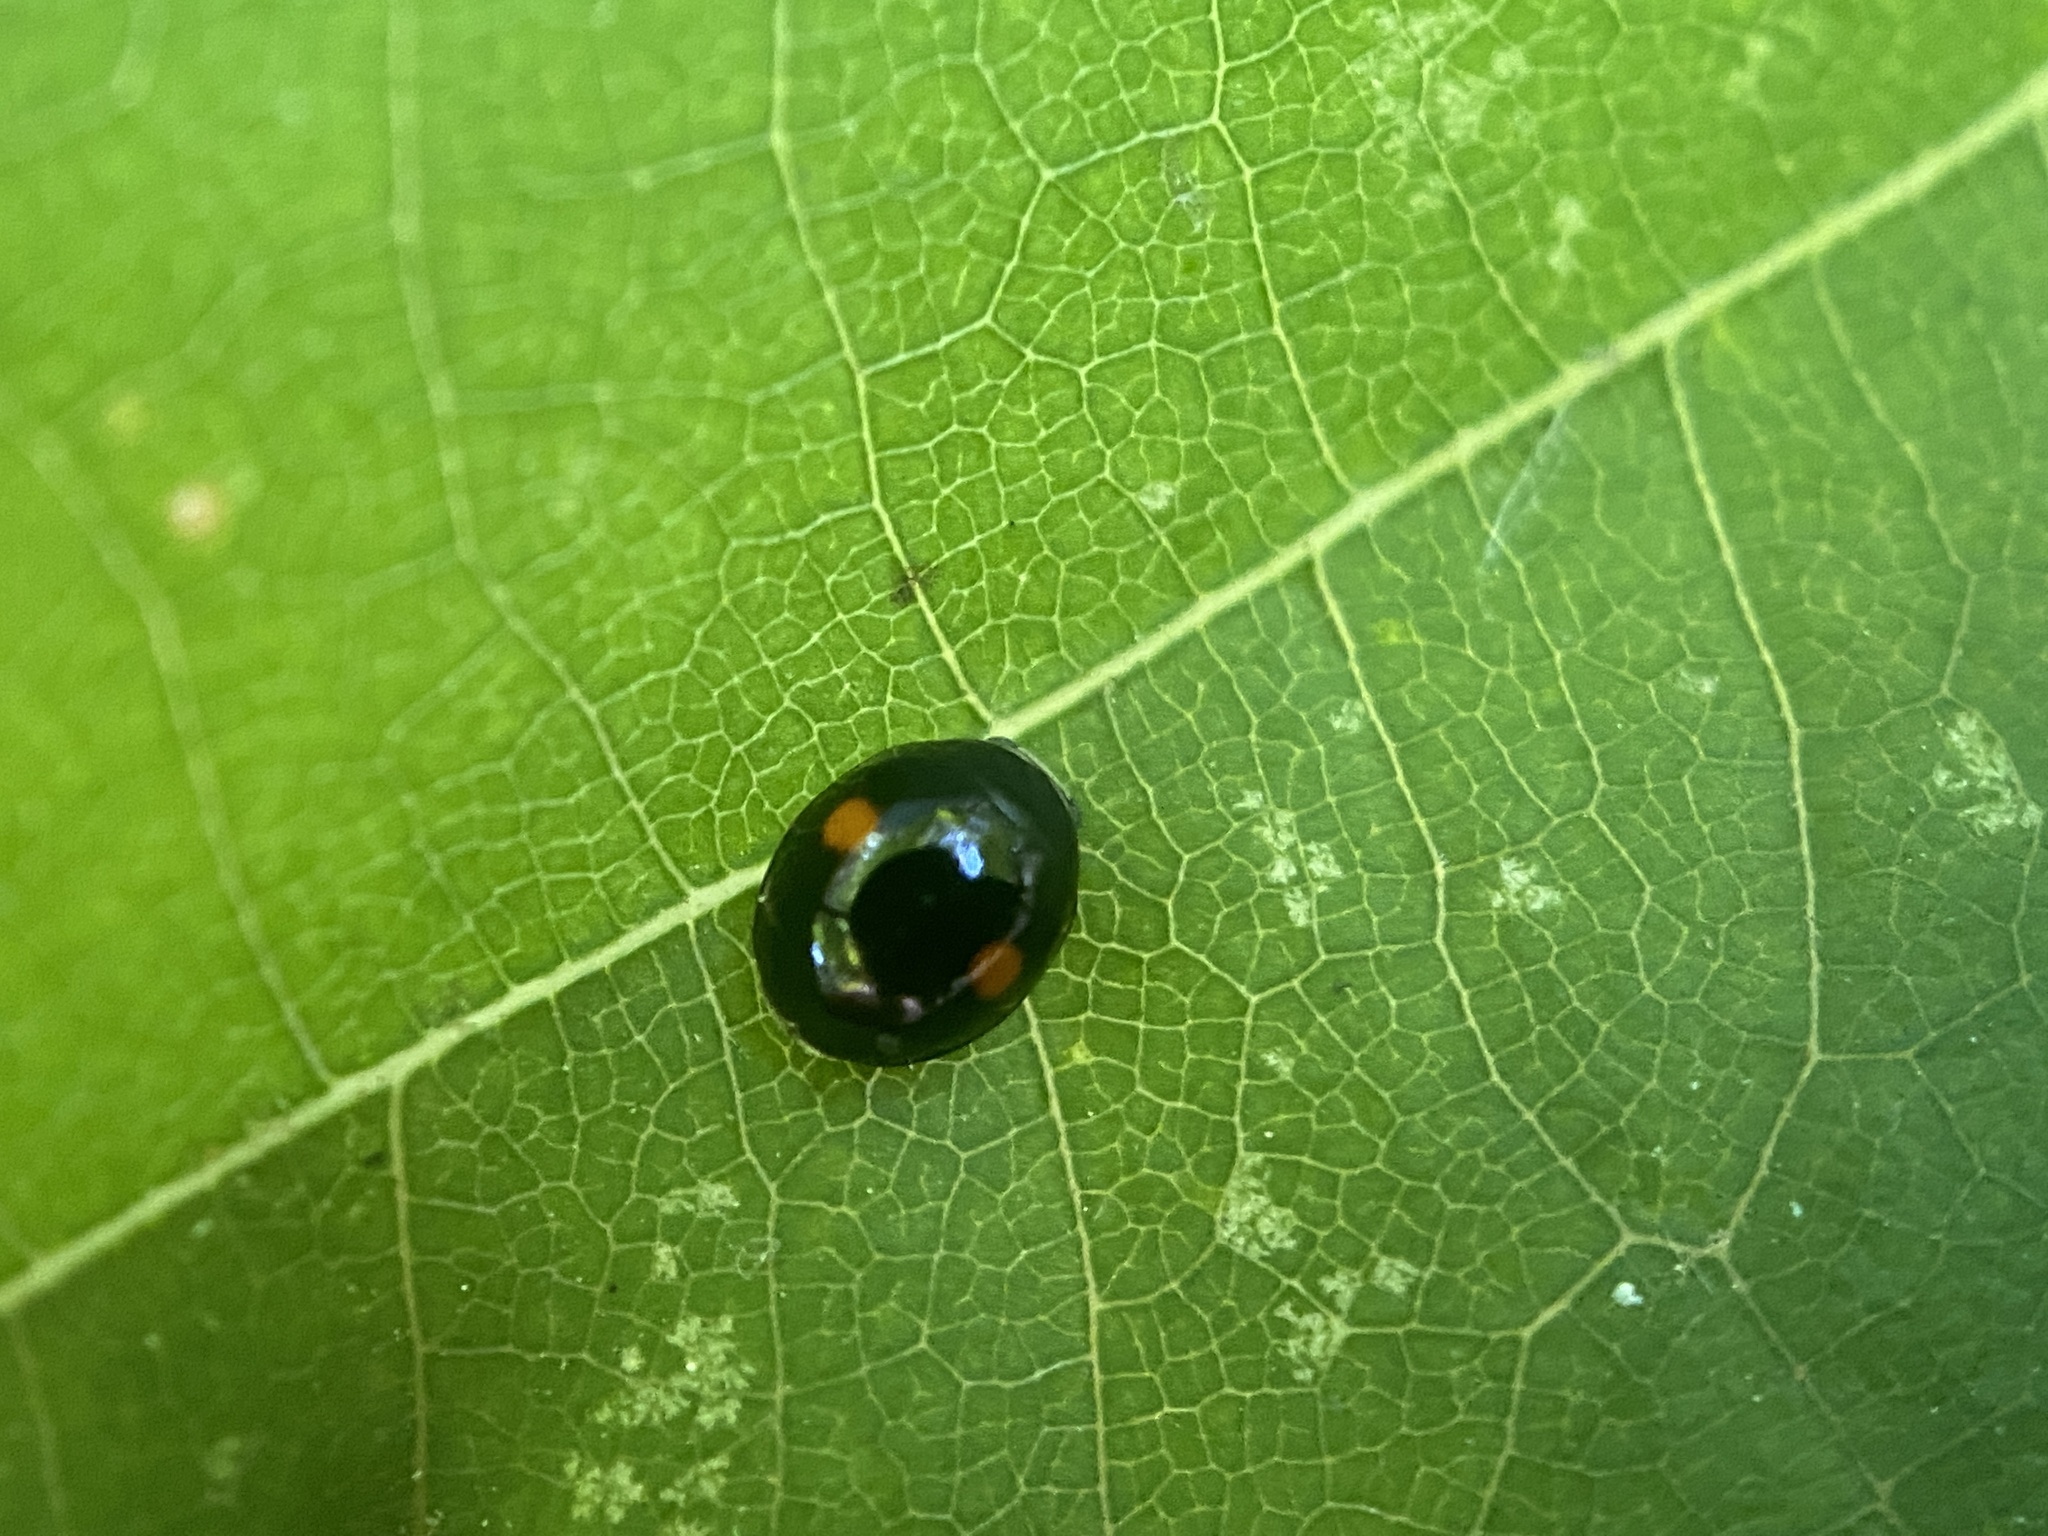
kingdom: Animalia
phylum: Arthropoda
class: Insecta
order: Coleoptera
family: Coccinellidae
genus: Chilocorus
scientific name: Chilocorus stigma
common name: Twicestabbed lady beetle
